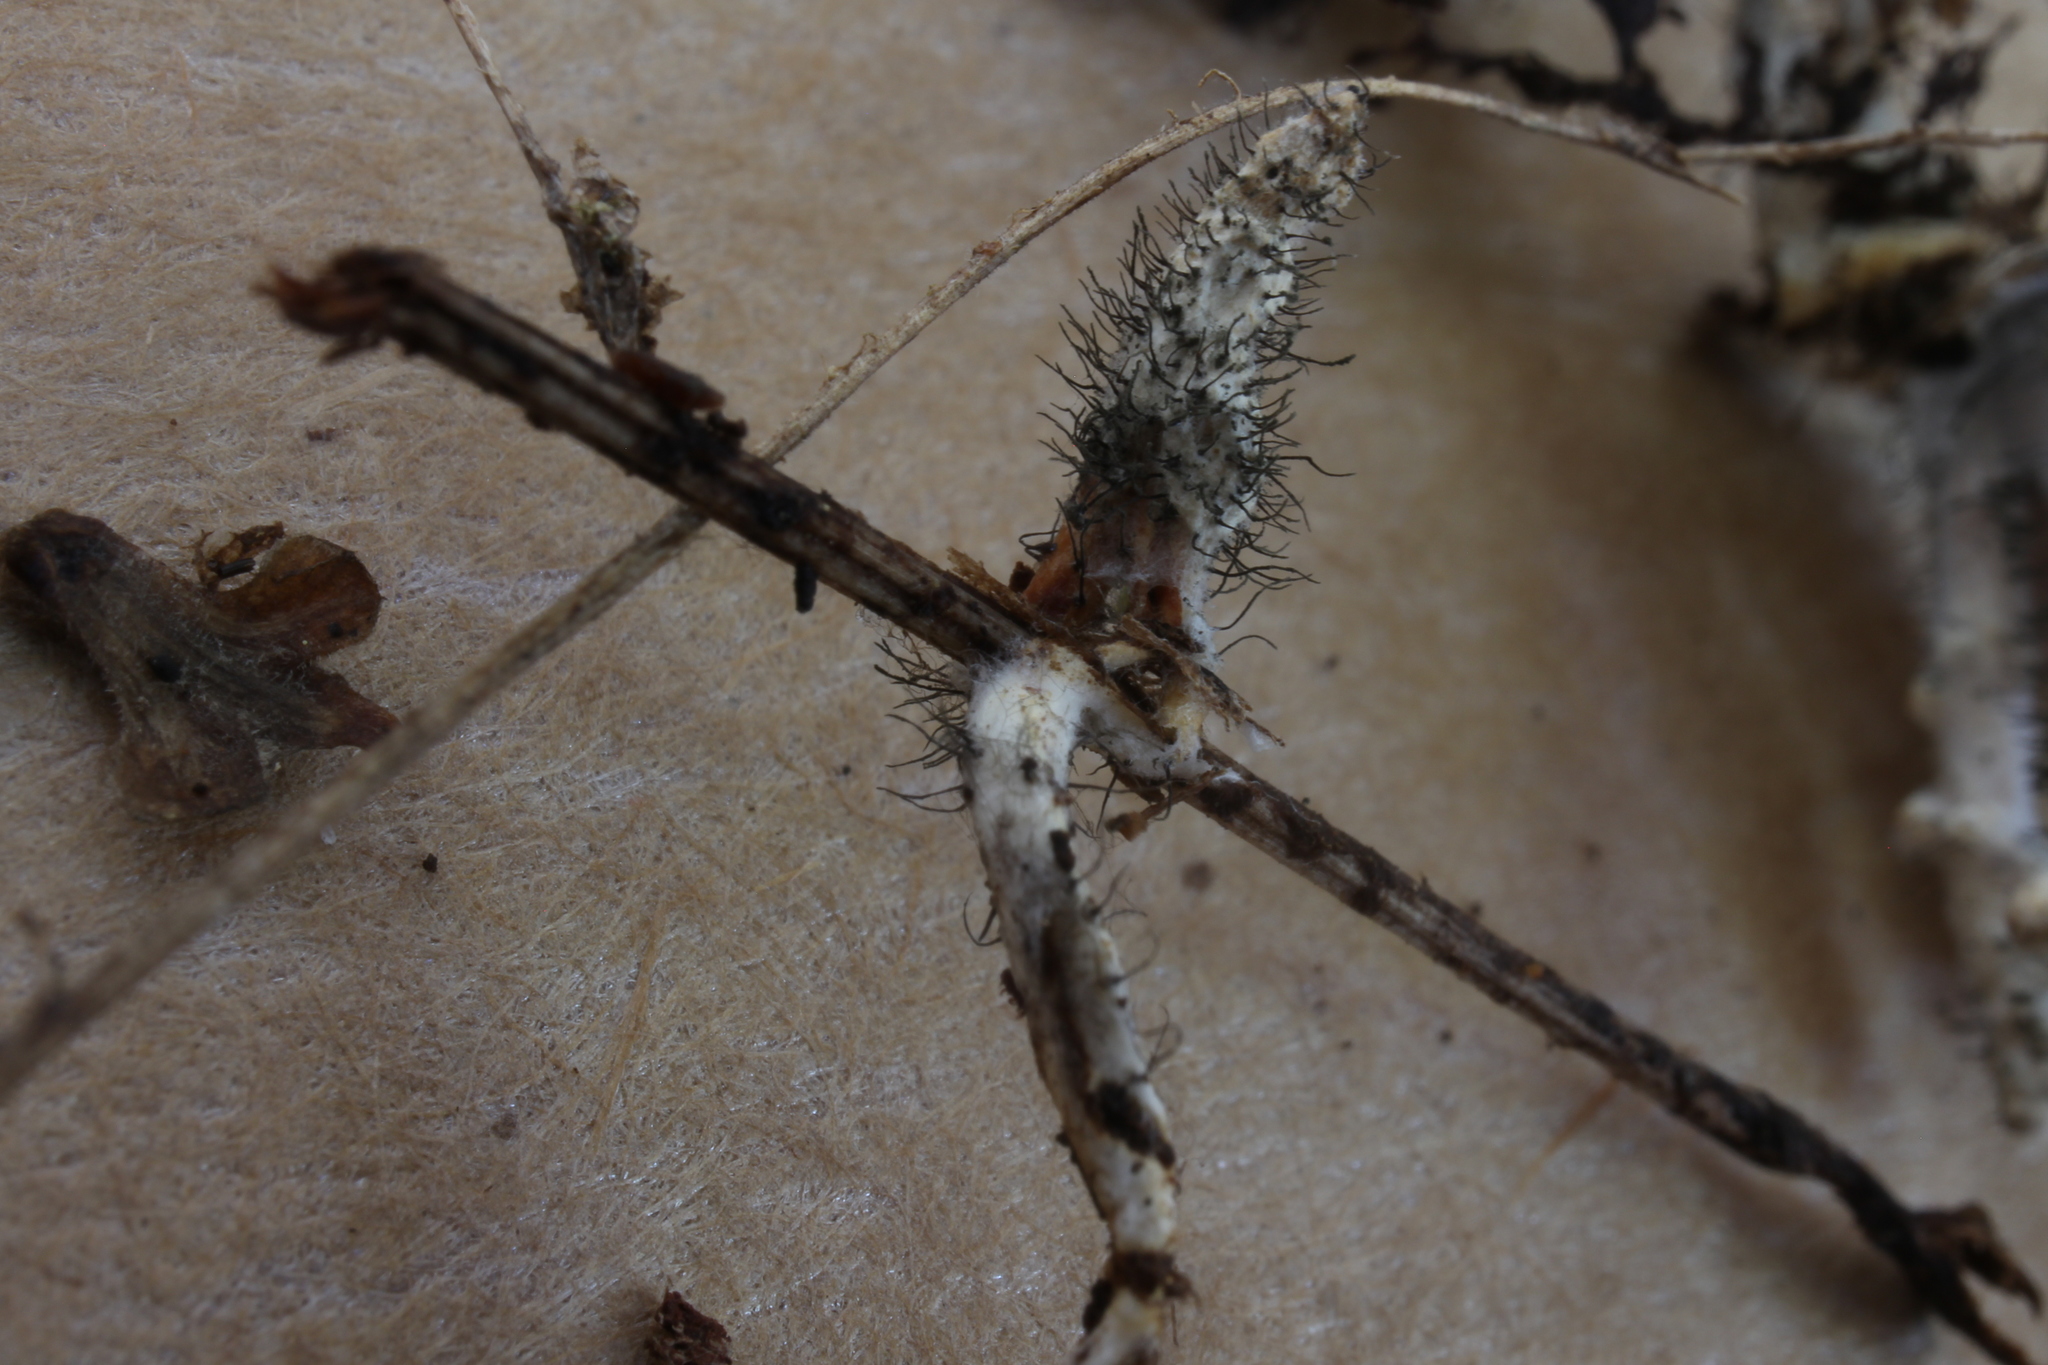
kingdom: Fungi
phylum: Ascomycota
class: Sordariomycetes
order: Hypocreales
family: Hypocreaceae
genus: Syspastospora
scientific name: Syspastospora parasitica
